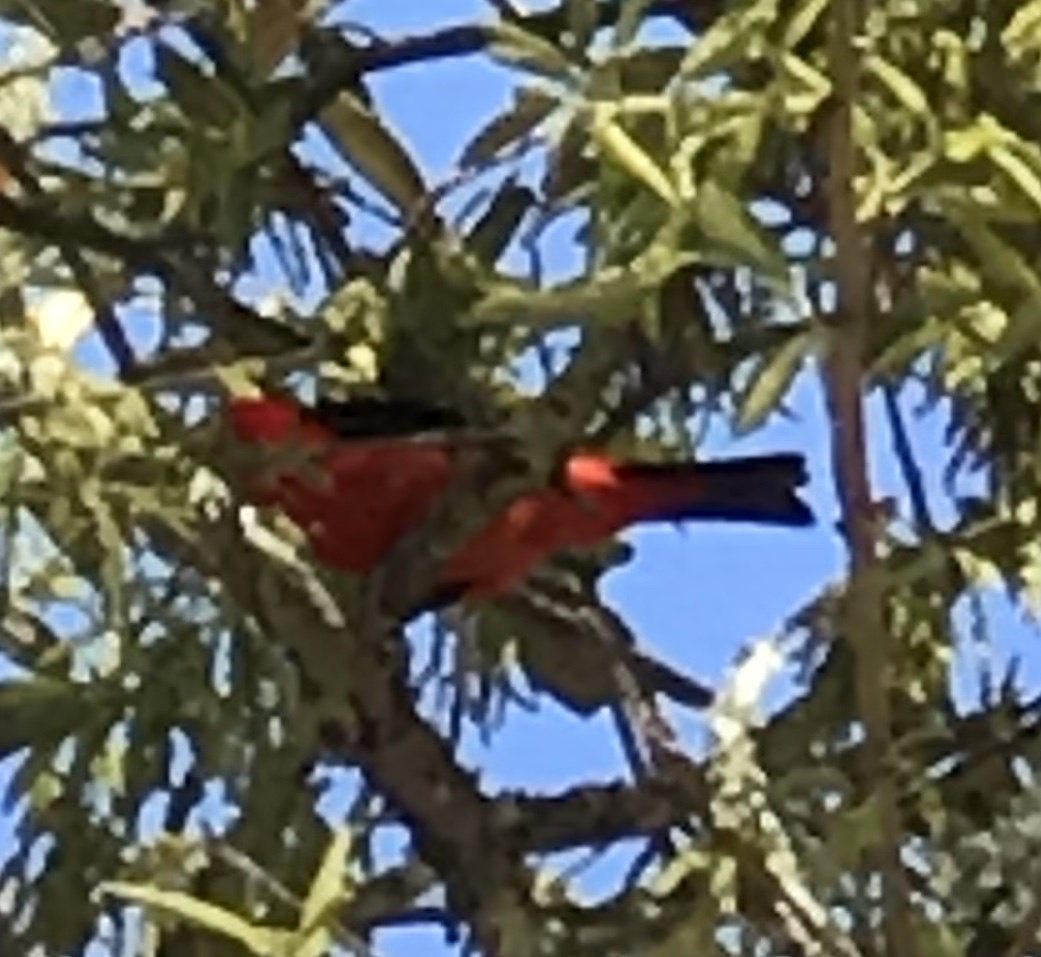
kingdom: Animalia
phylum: Chordata
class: Aves
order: Passeriformes
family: Cardinalidae
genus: Piranga
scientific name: Piranga olivacea
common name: Scarlet tanager
